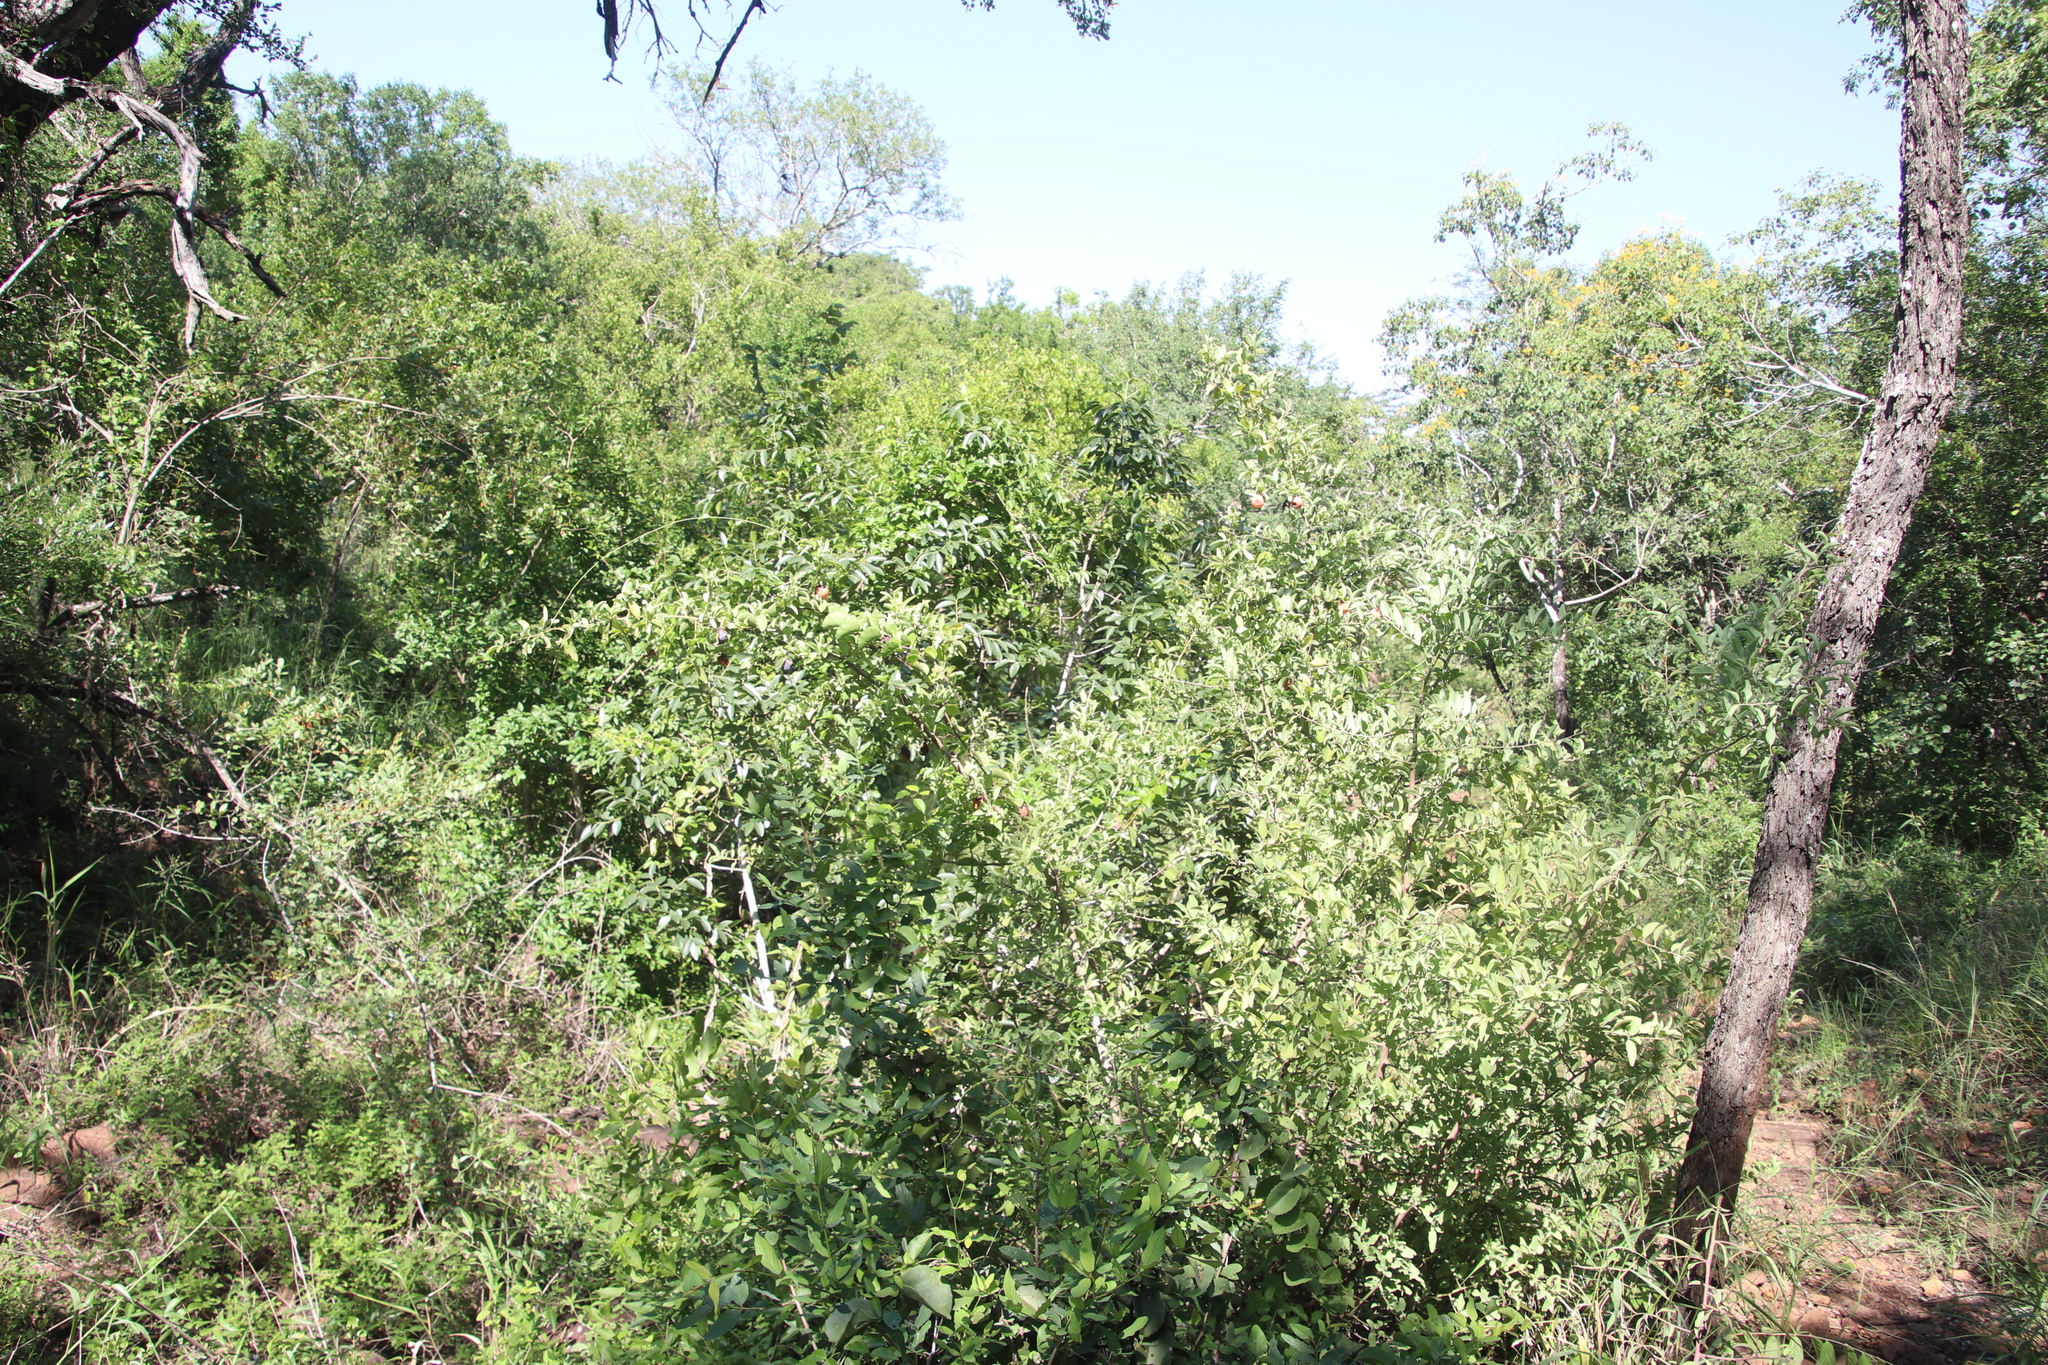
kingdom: Plantae
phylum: Tracheophyta
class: Magnoliopsida
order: Santalales
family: Ximeniaceae
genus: Ximenia
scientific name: Ximenia americana
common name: Tallowwood
